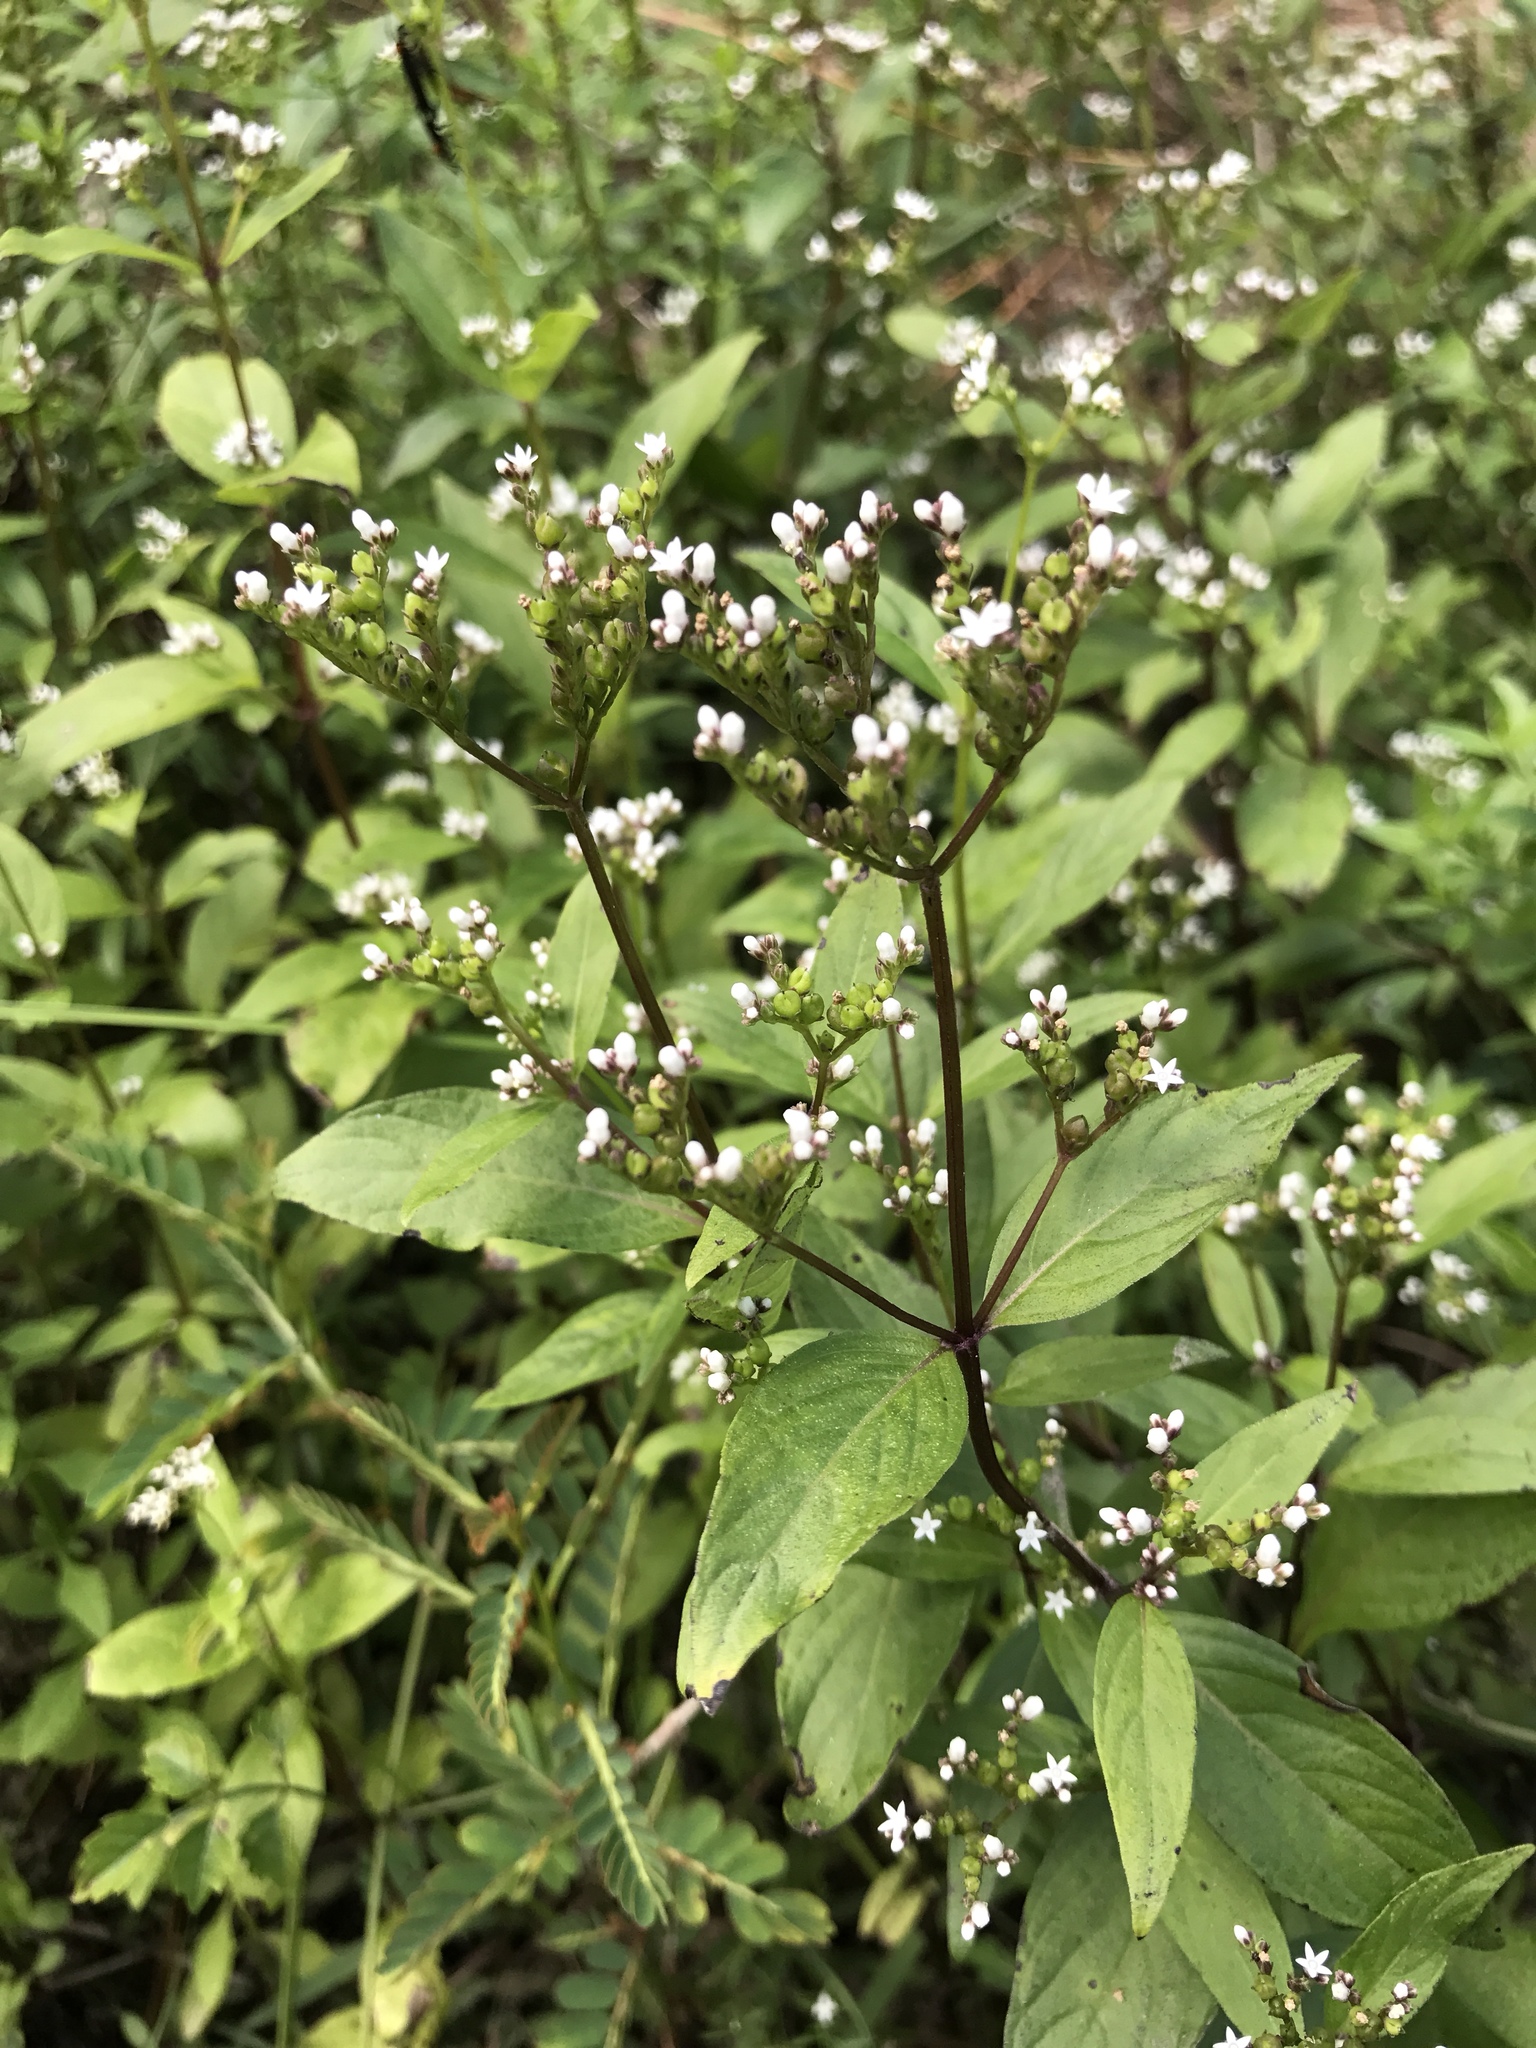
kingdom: Plantae
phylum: Tracheophyta
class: Magnoliopsida
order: Gentianales
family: Loganiaceae
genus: Mitreola
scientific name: Mitreola petiolata
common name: Lax hornpod
